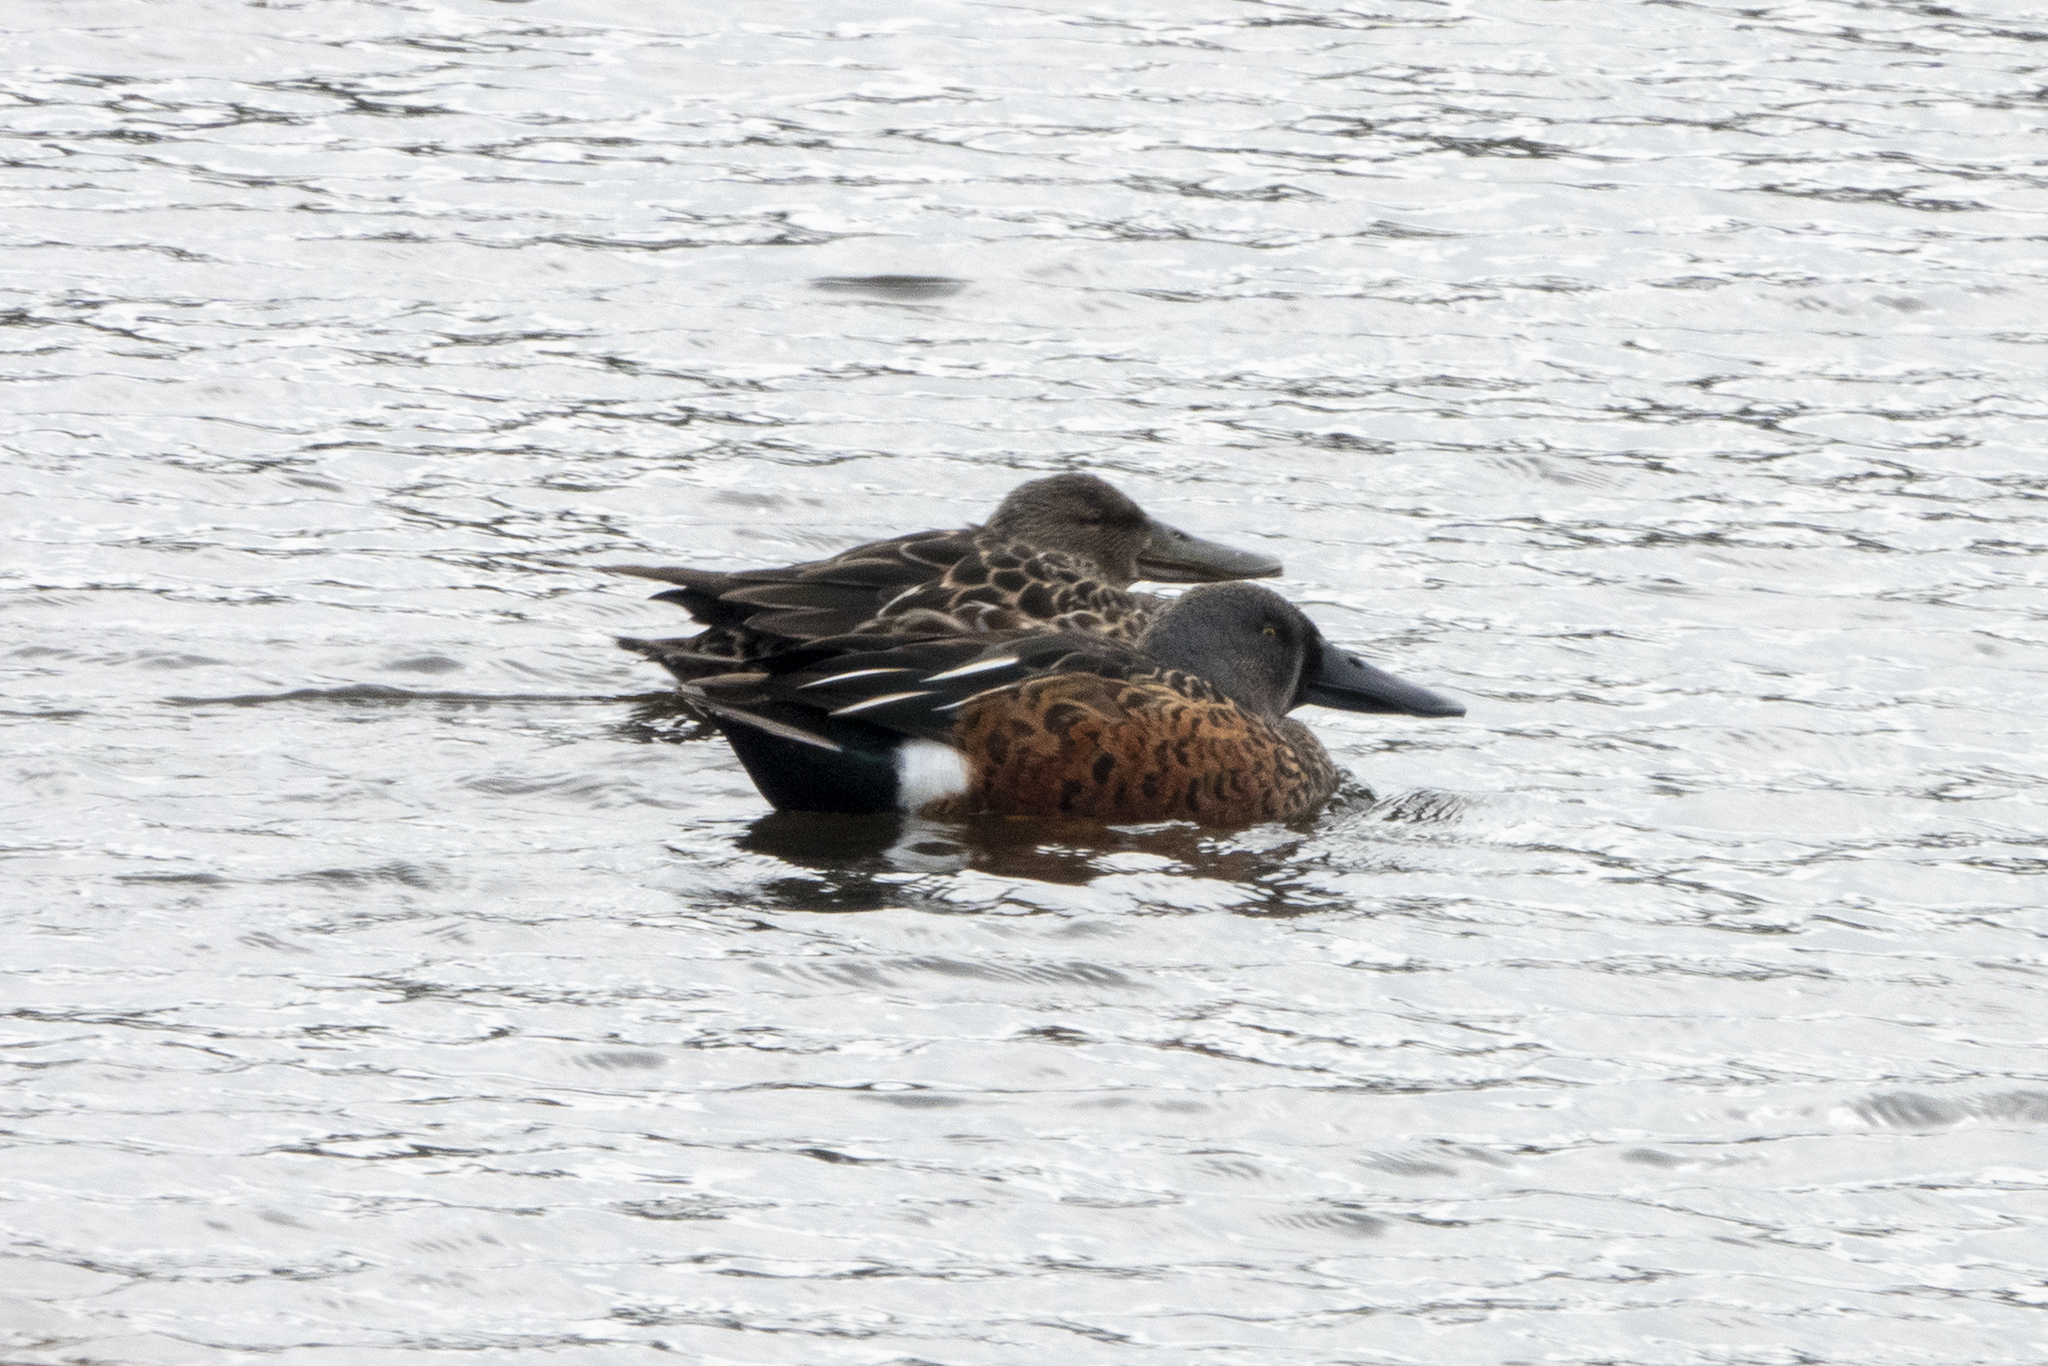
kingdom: Animalia
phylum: Chordata
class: Aves
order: Anseriformes
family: Anatidae
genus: Spatula
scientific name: Spatula rhynchotis
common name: Australian shoveler
